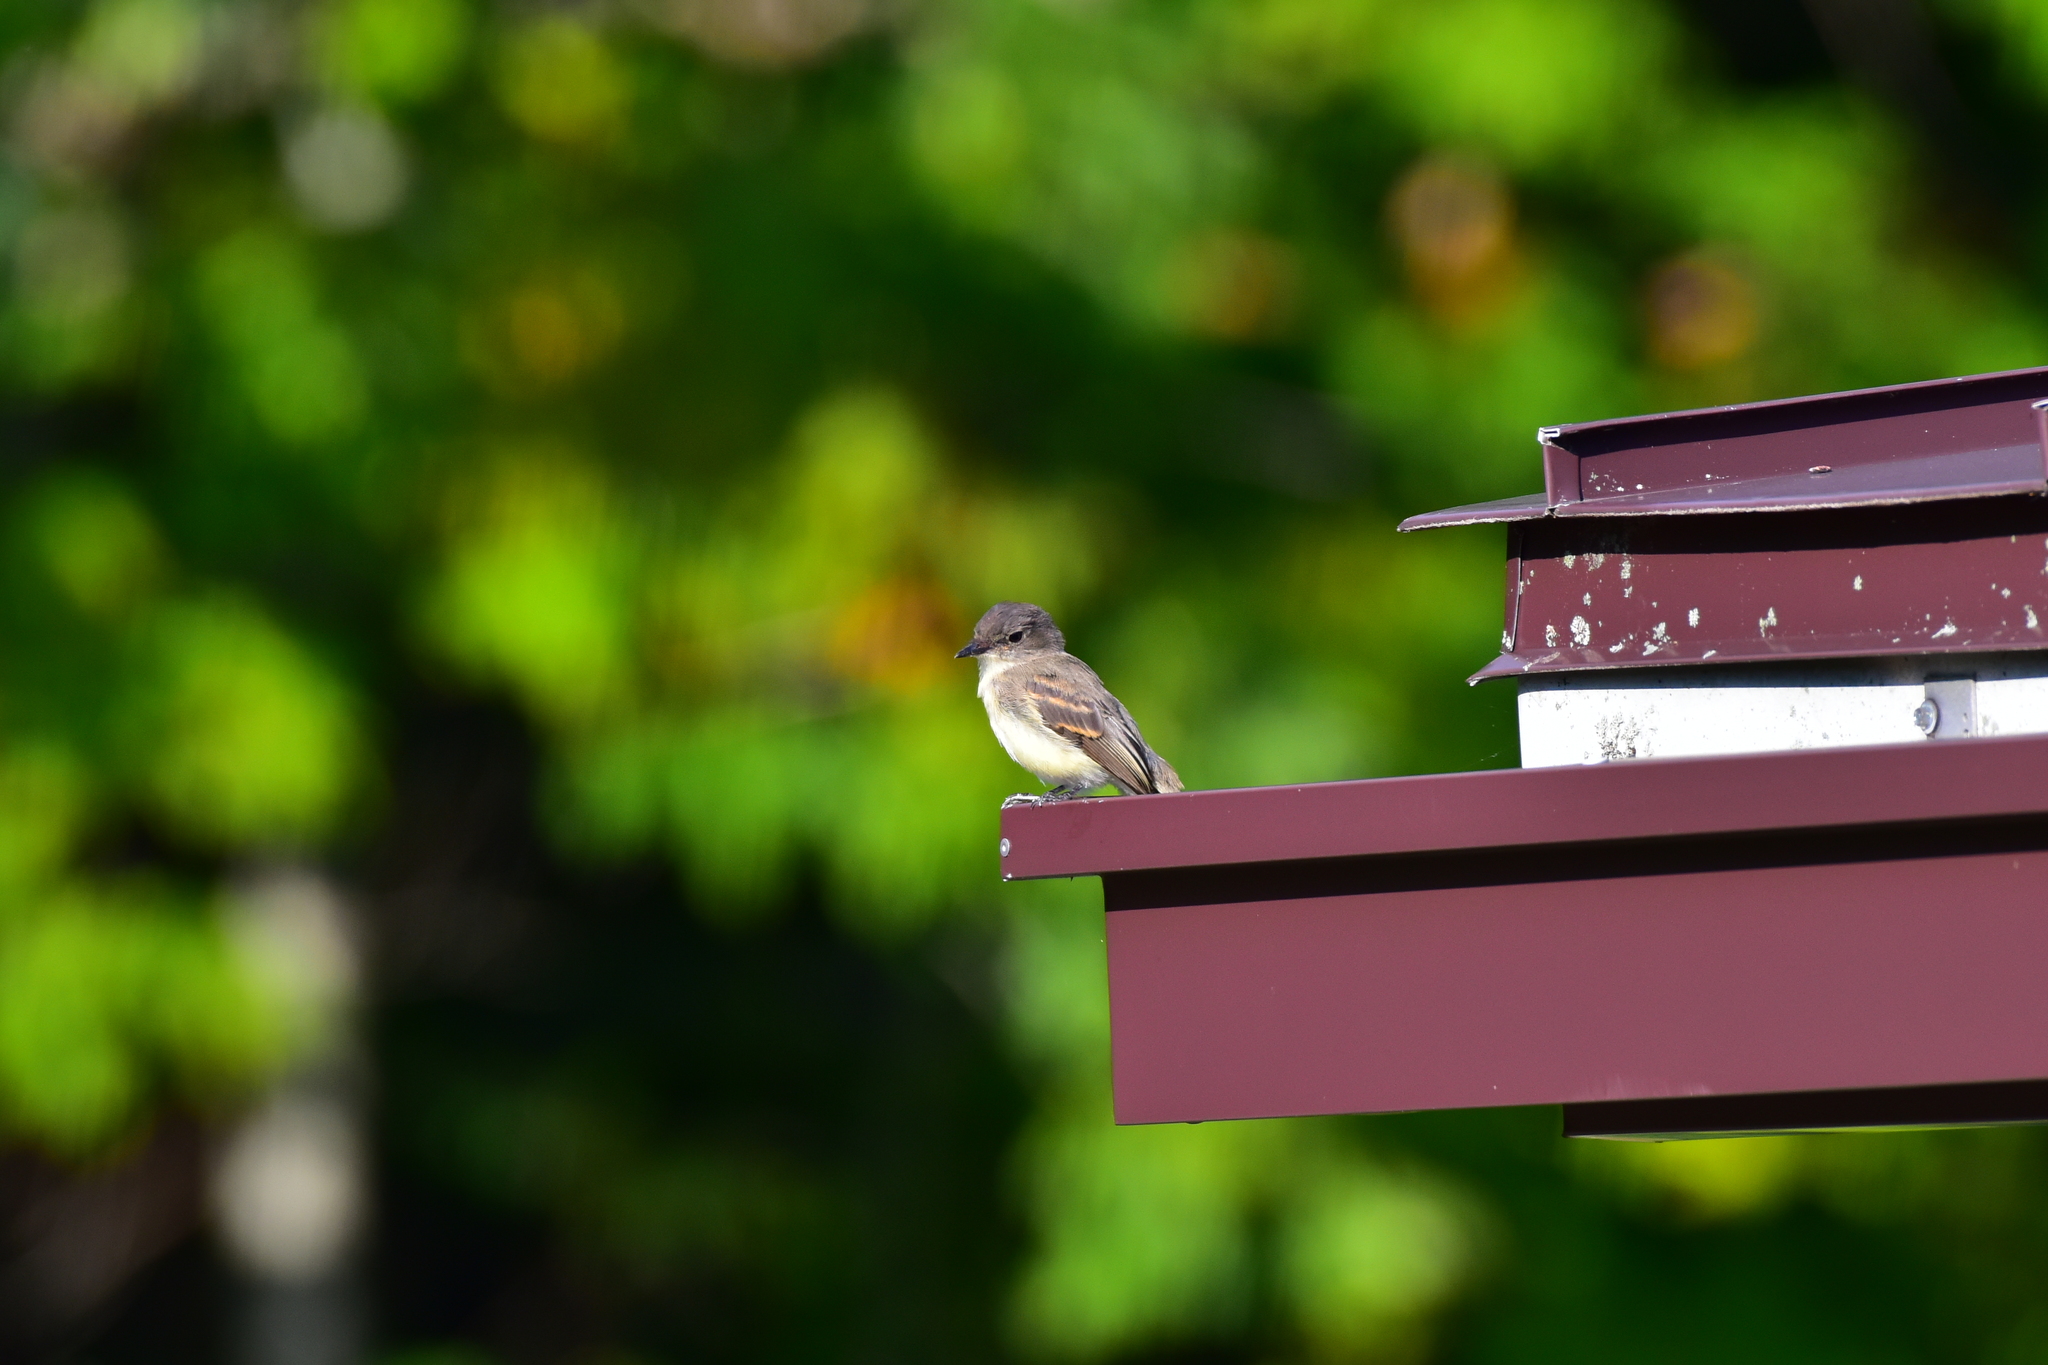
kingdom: Animalia
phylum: Chordata
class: Aves
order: Passeriformes
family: Tyrannidae
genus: Sayornis
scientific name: Sayornis phoebe
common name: Eastern phoebe
